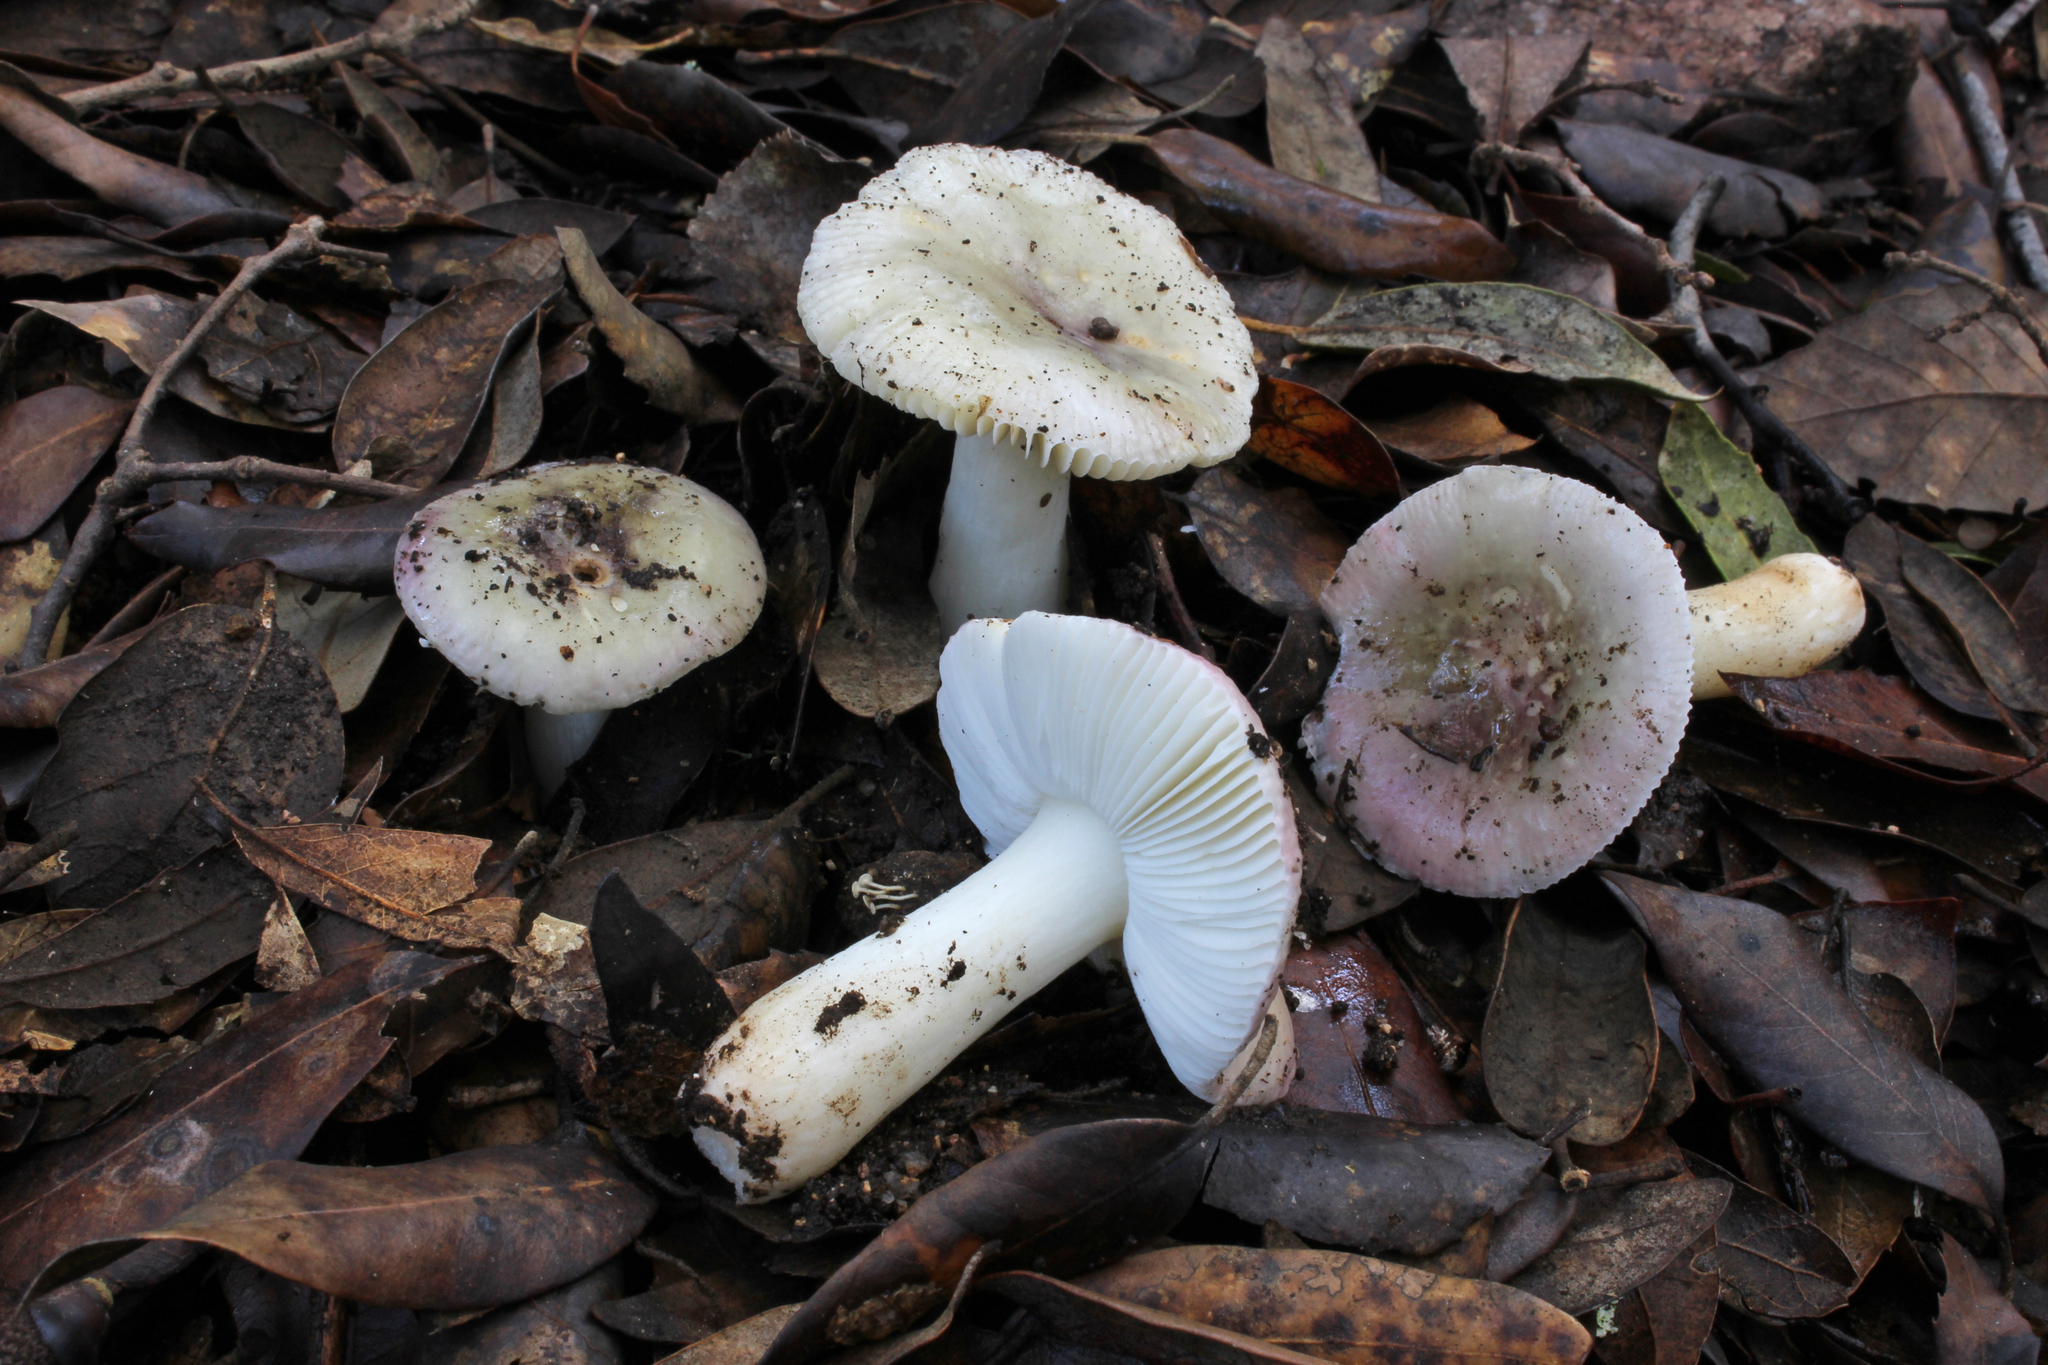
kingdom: Fungi
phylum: Basidiomycota
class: Agaricomycetes
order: Russulales
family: Russulaceae
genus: Russula
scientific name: Russula fragilis
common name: Fragile brittlegill
